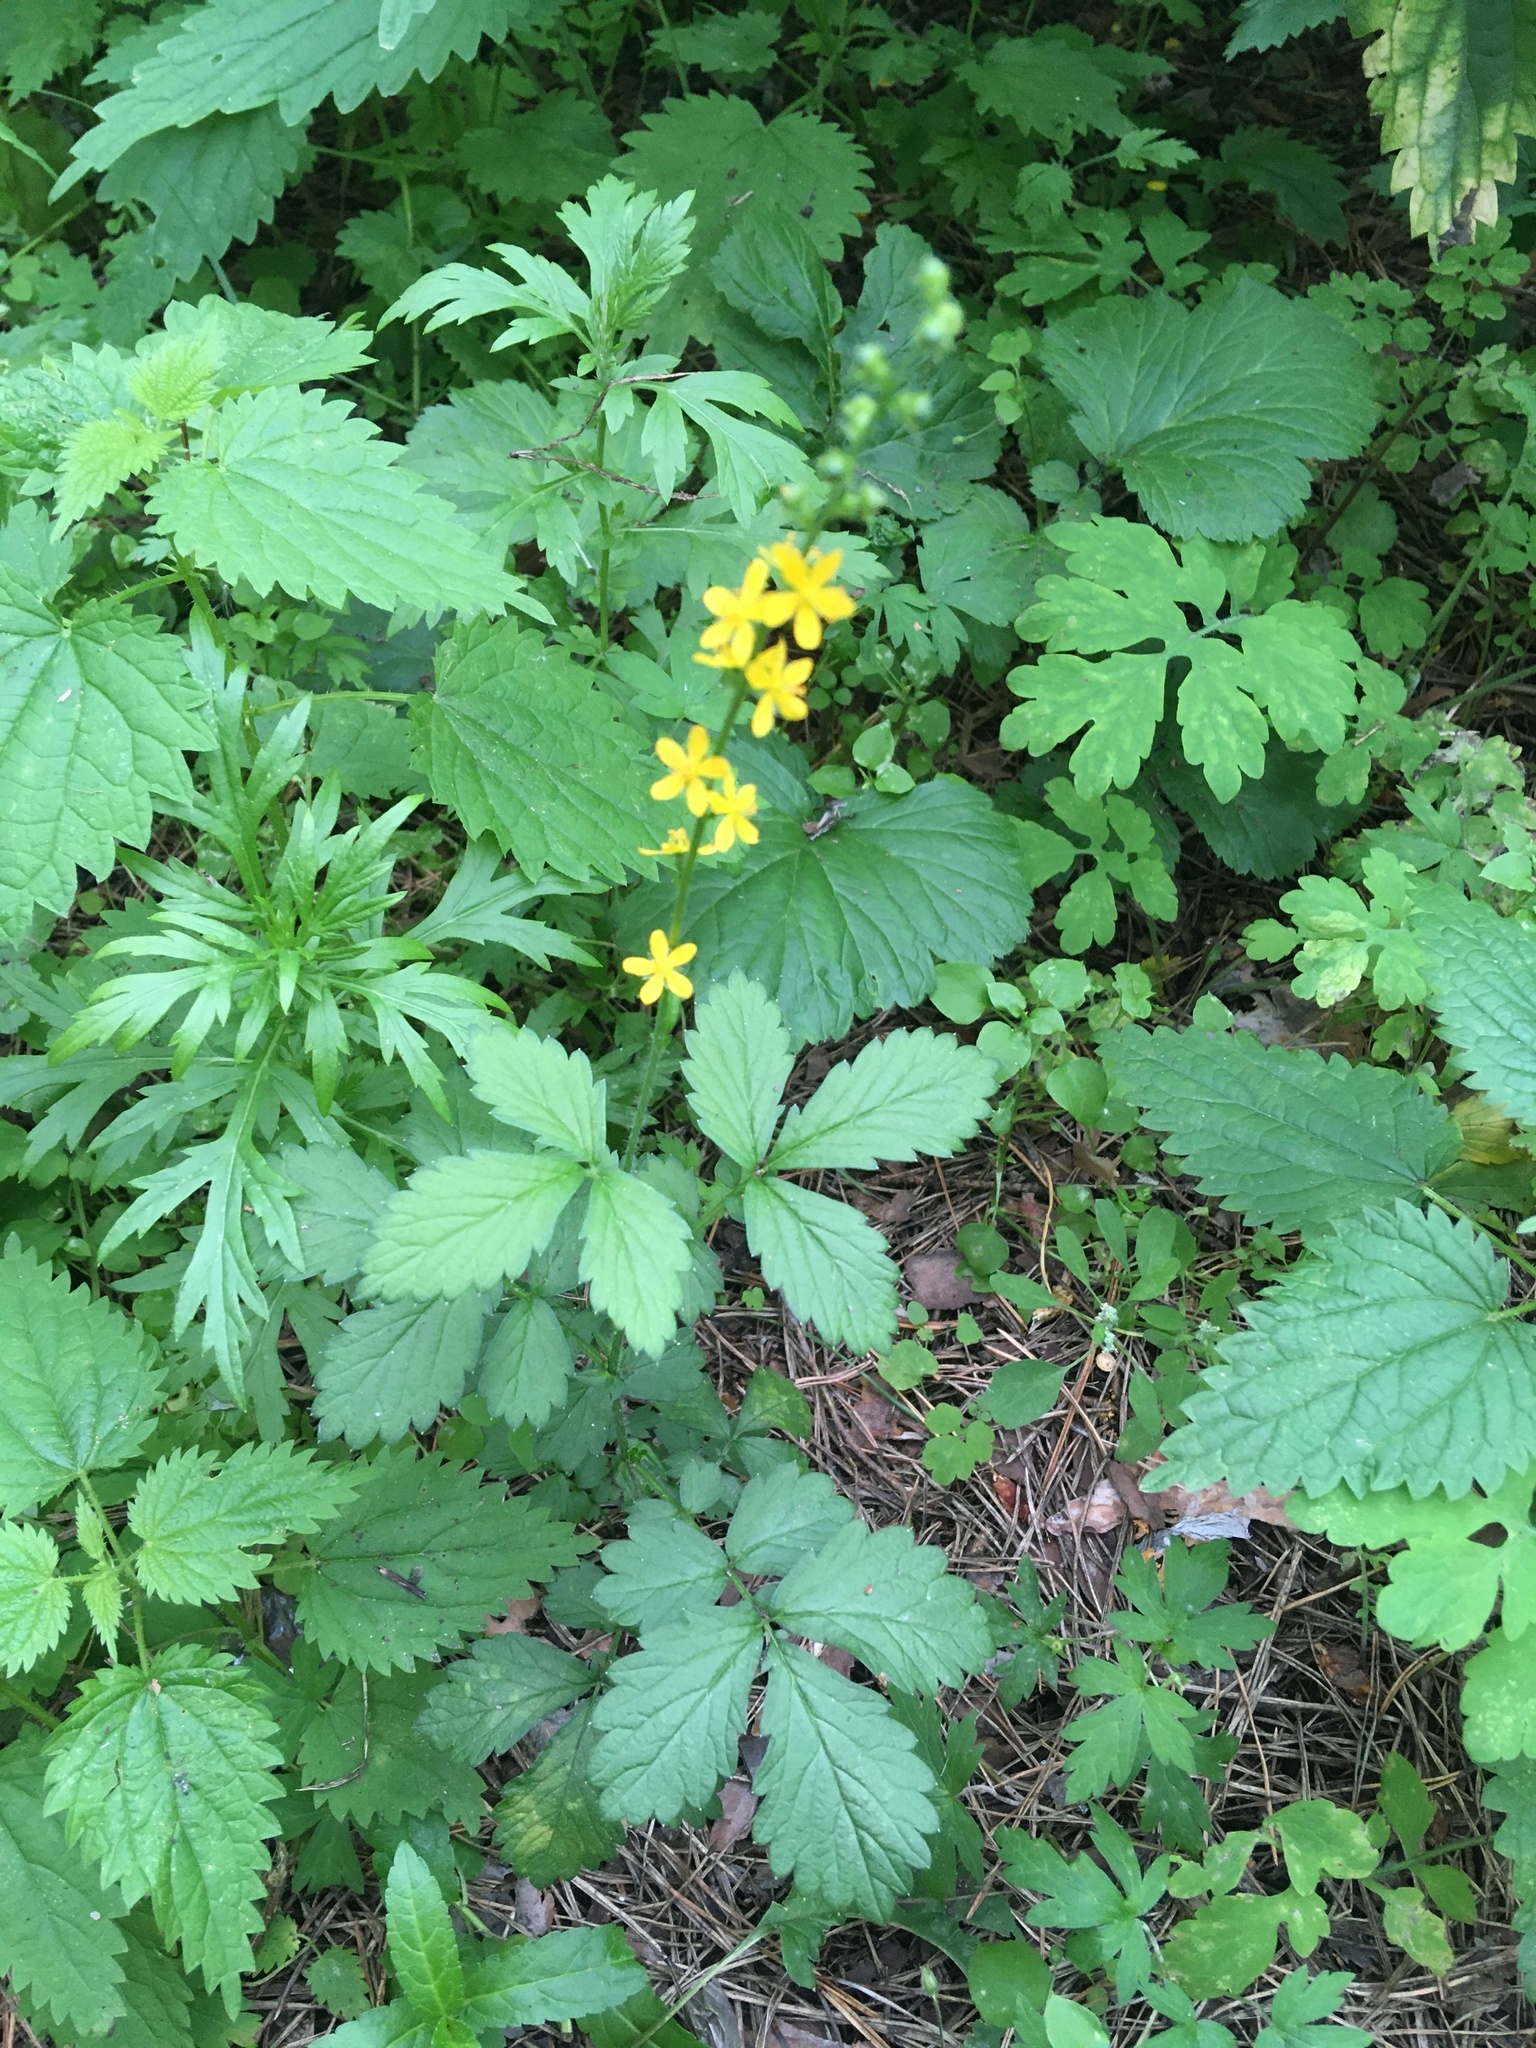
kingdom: Plantae
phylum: Tracheophyta
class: Magnoliopsida
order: Rosales
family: Rosaceae
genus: Agrimonia
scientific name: Agrimonia pilosa
